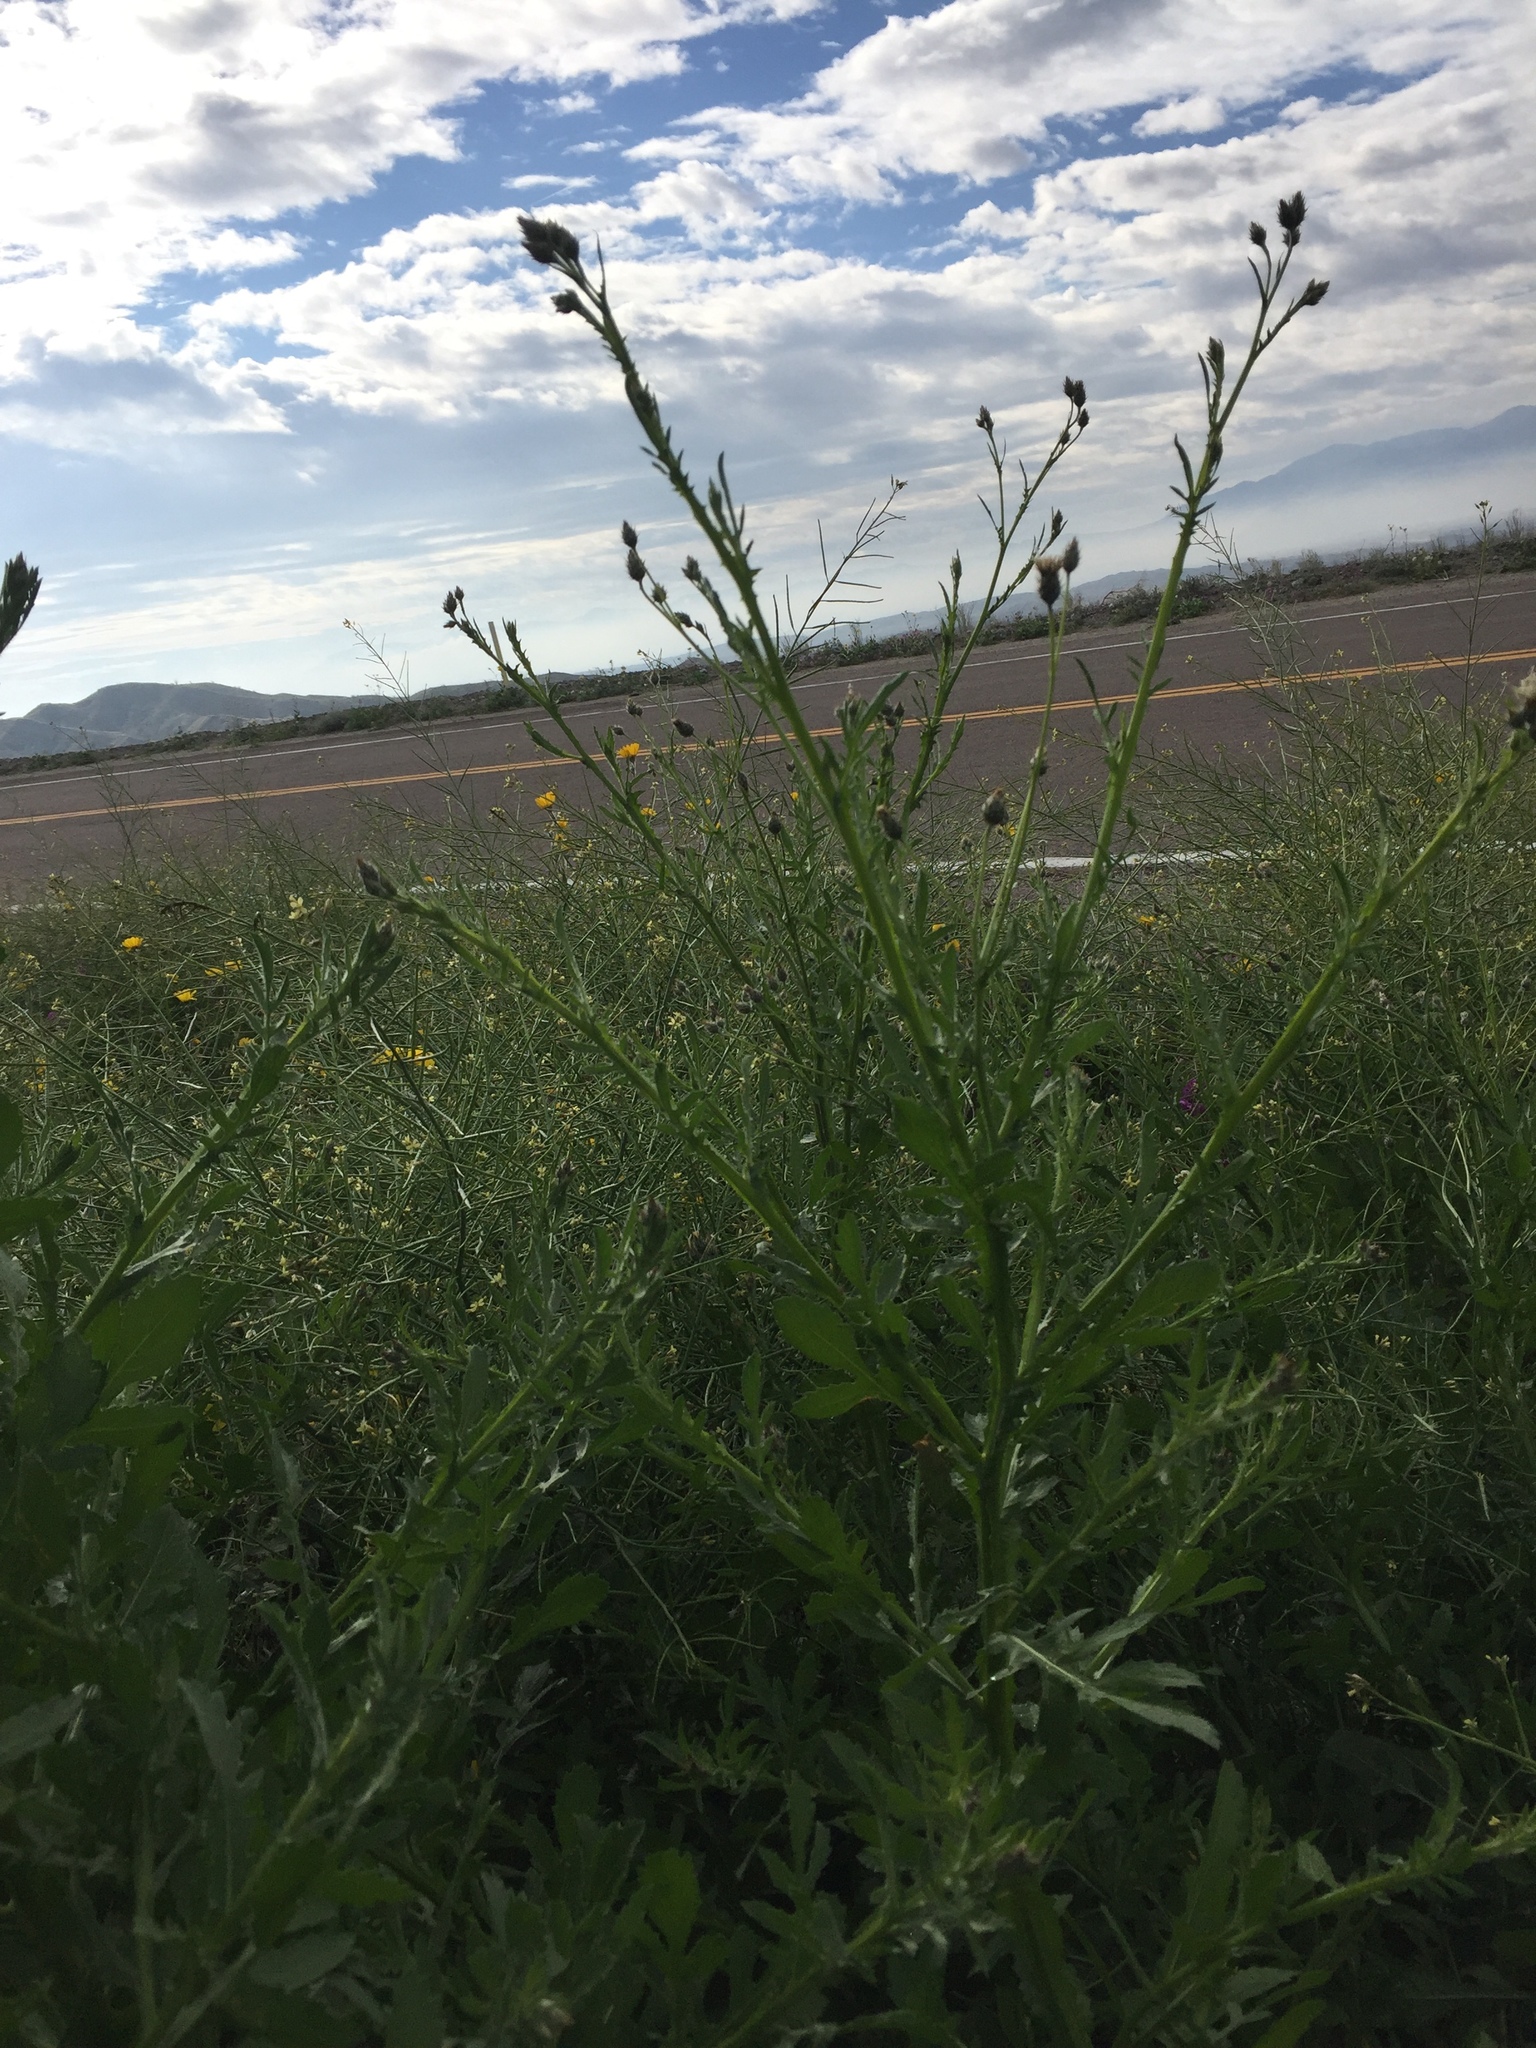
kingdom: Plantae
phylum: Tracheophyta
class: Magnoliopsida
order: Asterales
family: Asteraceae
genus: Volutaria
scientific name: Volutaria tubuliflora
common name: Desert knapweed
